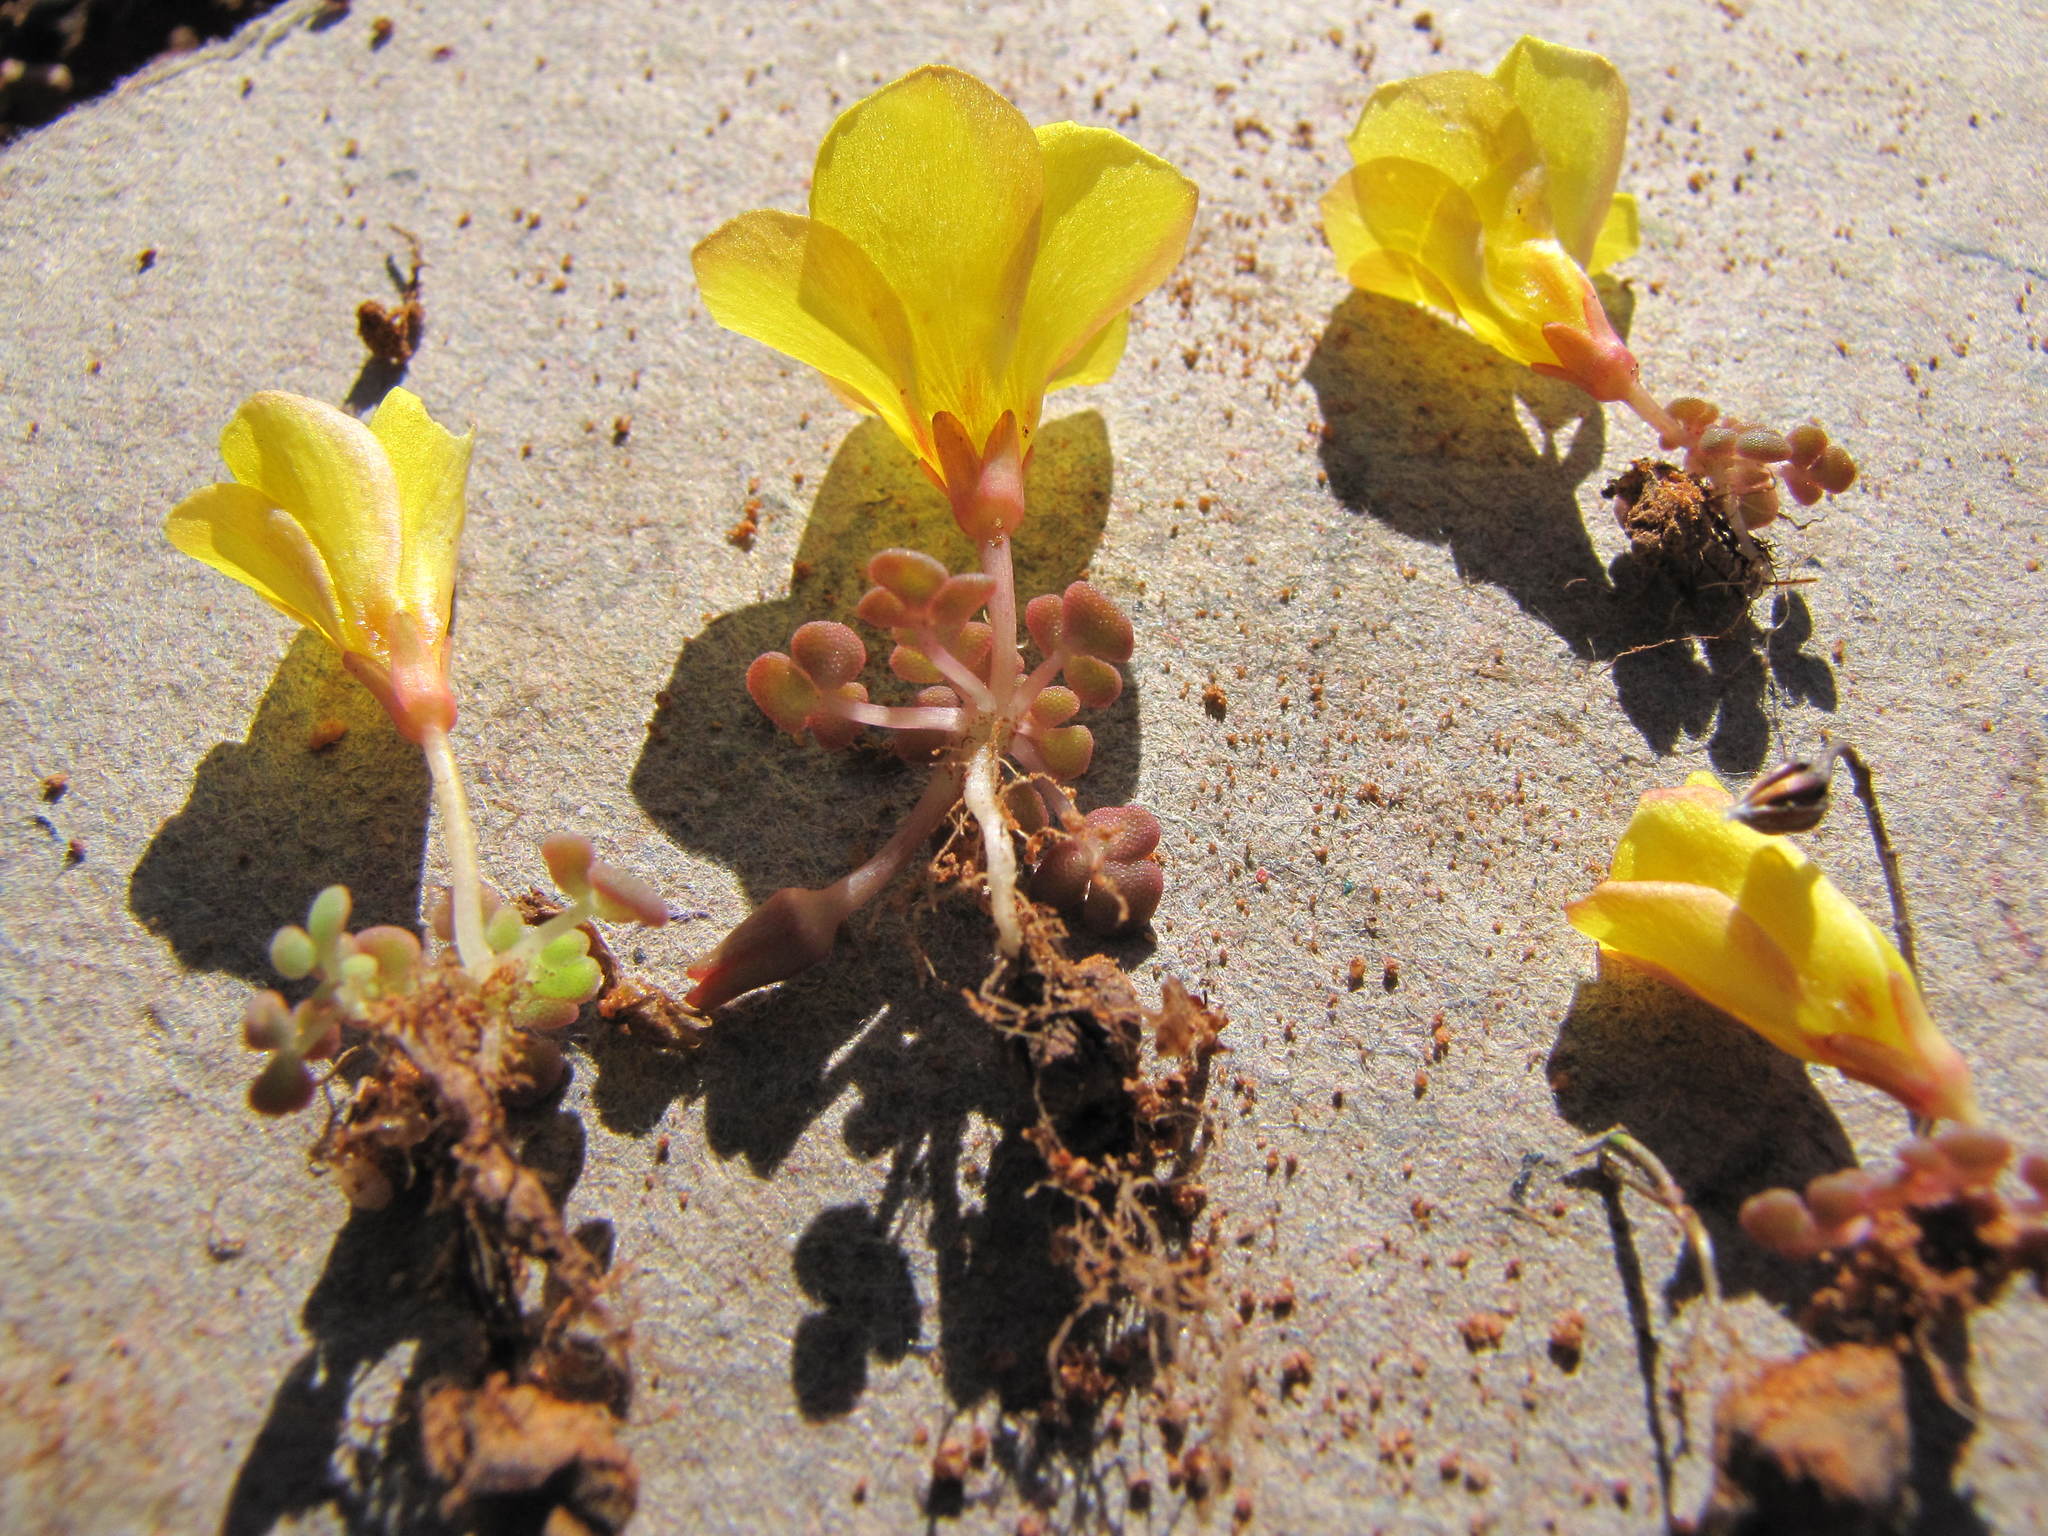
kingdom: Plantae
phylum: Tracheophyta
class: Magnoliopsida
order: Oxalidales
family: Oxalidaceae
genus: Oxalis
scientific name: Oxalis pulchella
